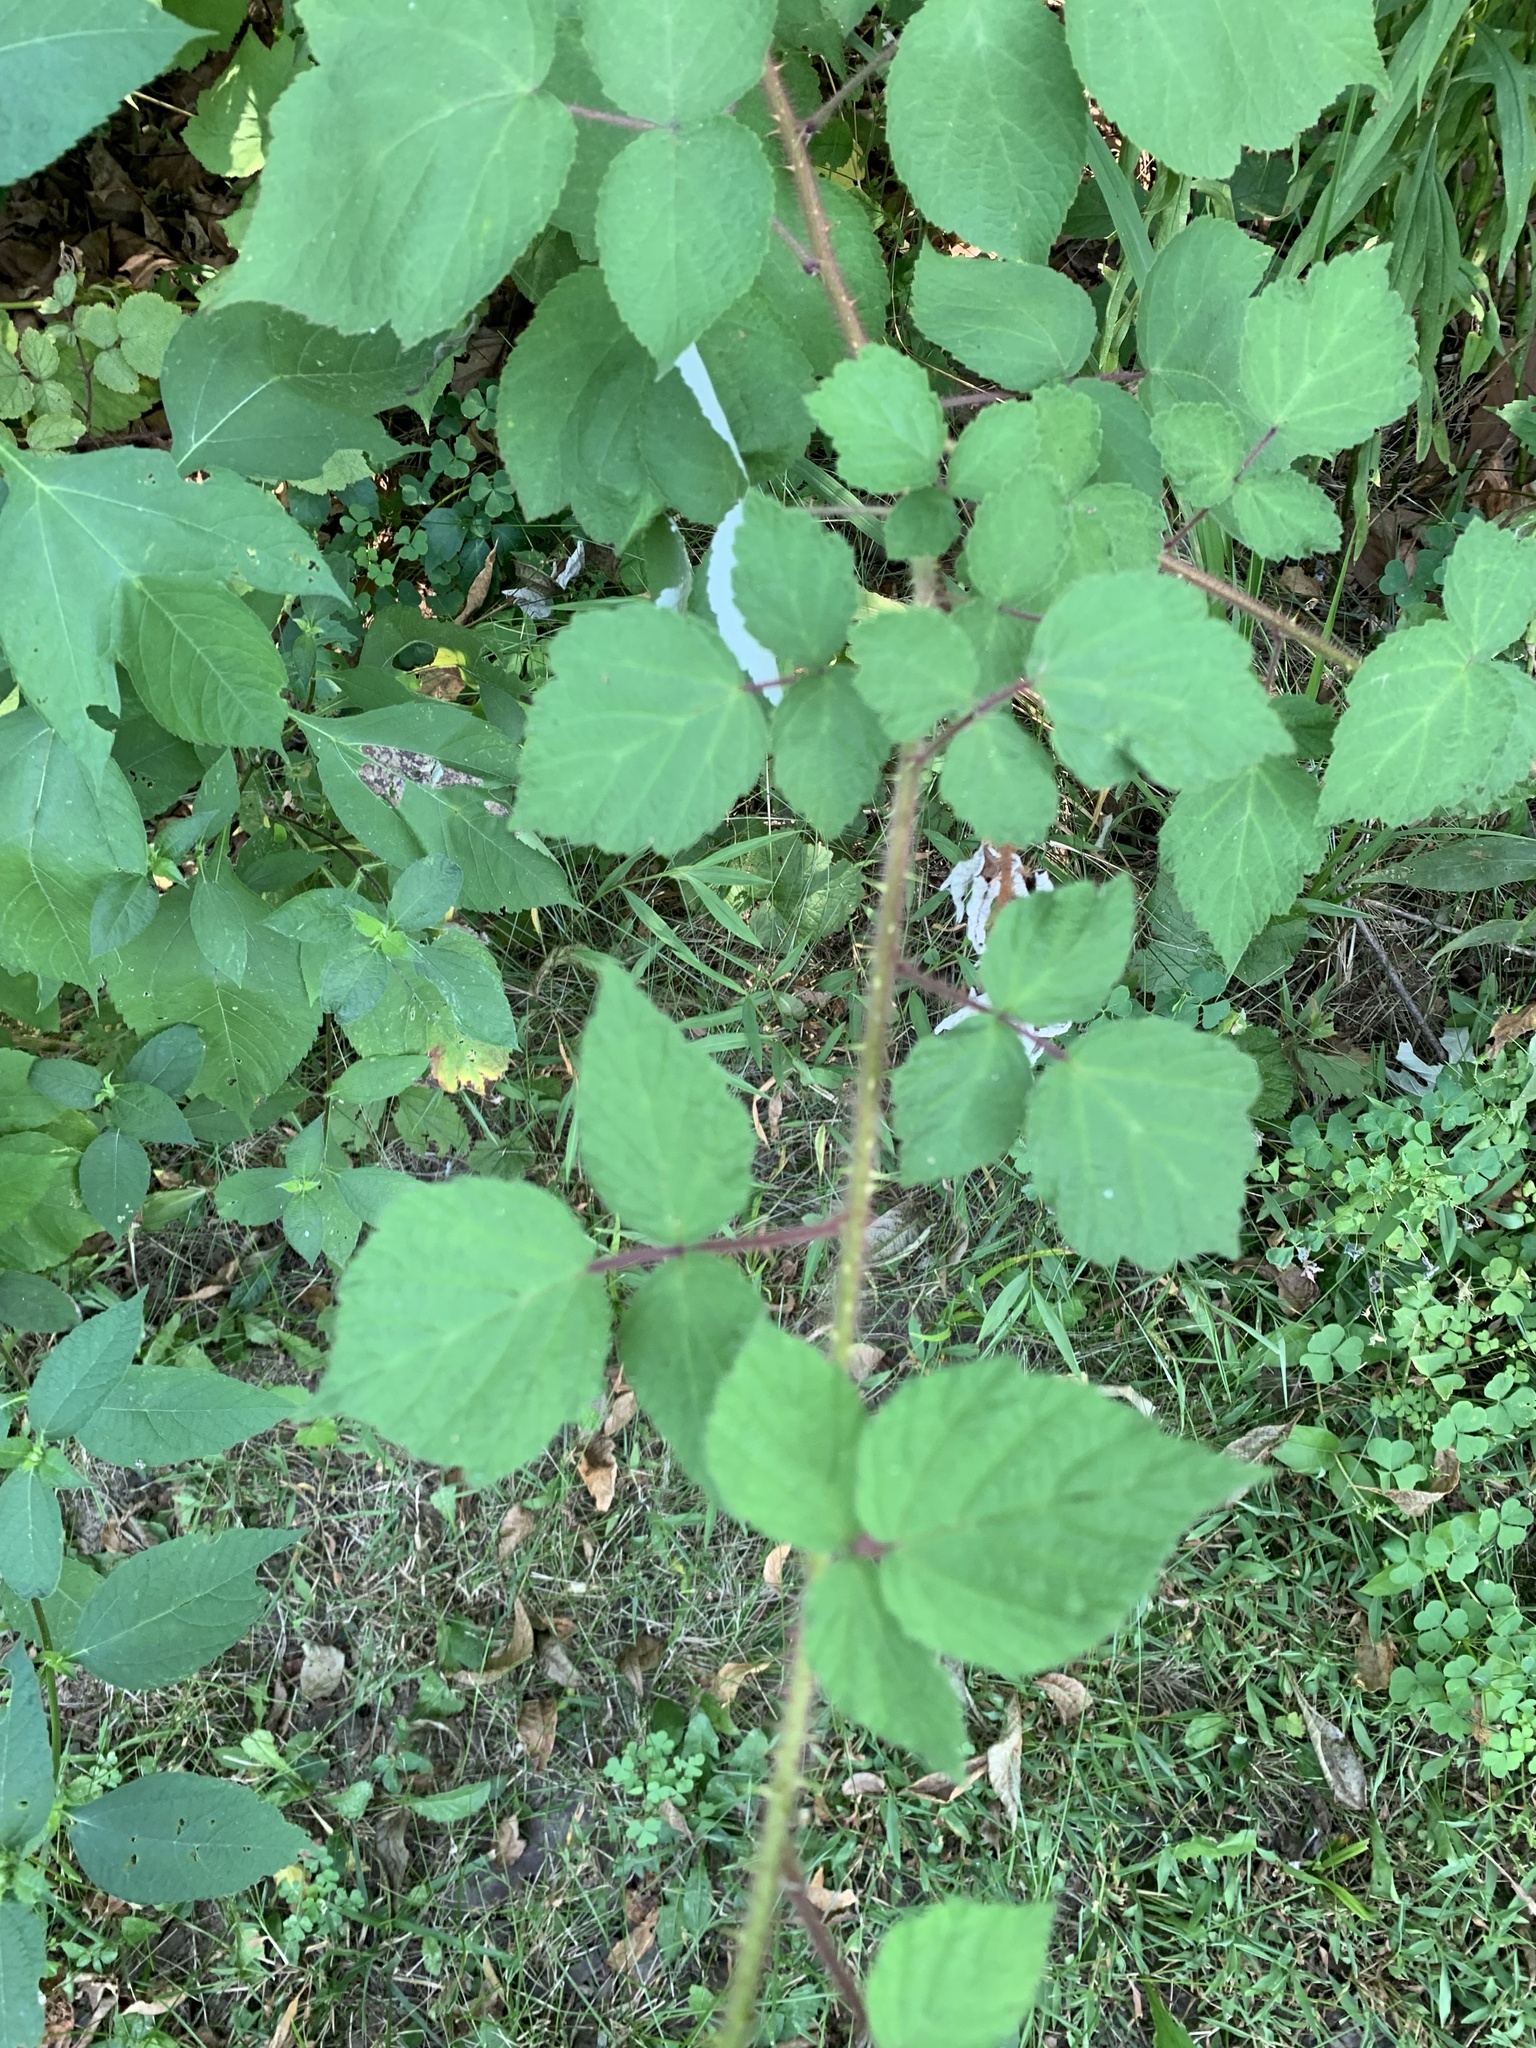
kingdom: Plantae
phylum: Tracheophyta
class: Magnoliopsida
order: Rosales
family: Rosaceae
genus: Rubus
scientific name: Rubus phoenicolasius
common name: Japanese wineberry
